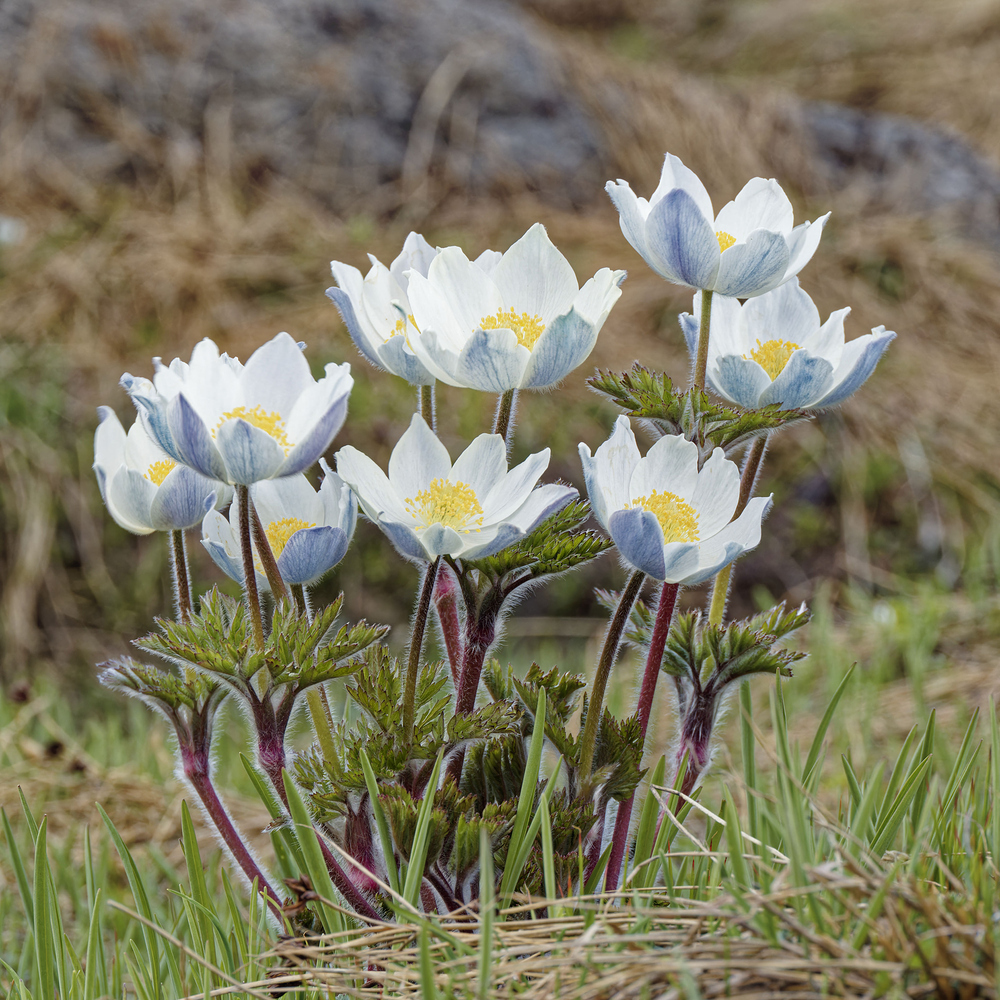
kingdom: Plantae
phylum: Tracheophyta
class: Magnoliopsida
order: Ranunculales
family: Ranunculaceae
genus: Pulsatilla
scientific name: Pulsatilla alpina
